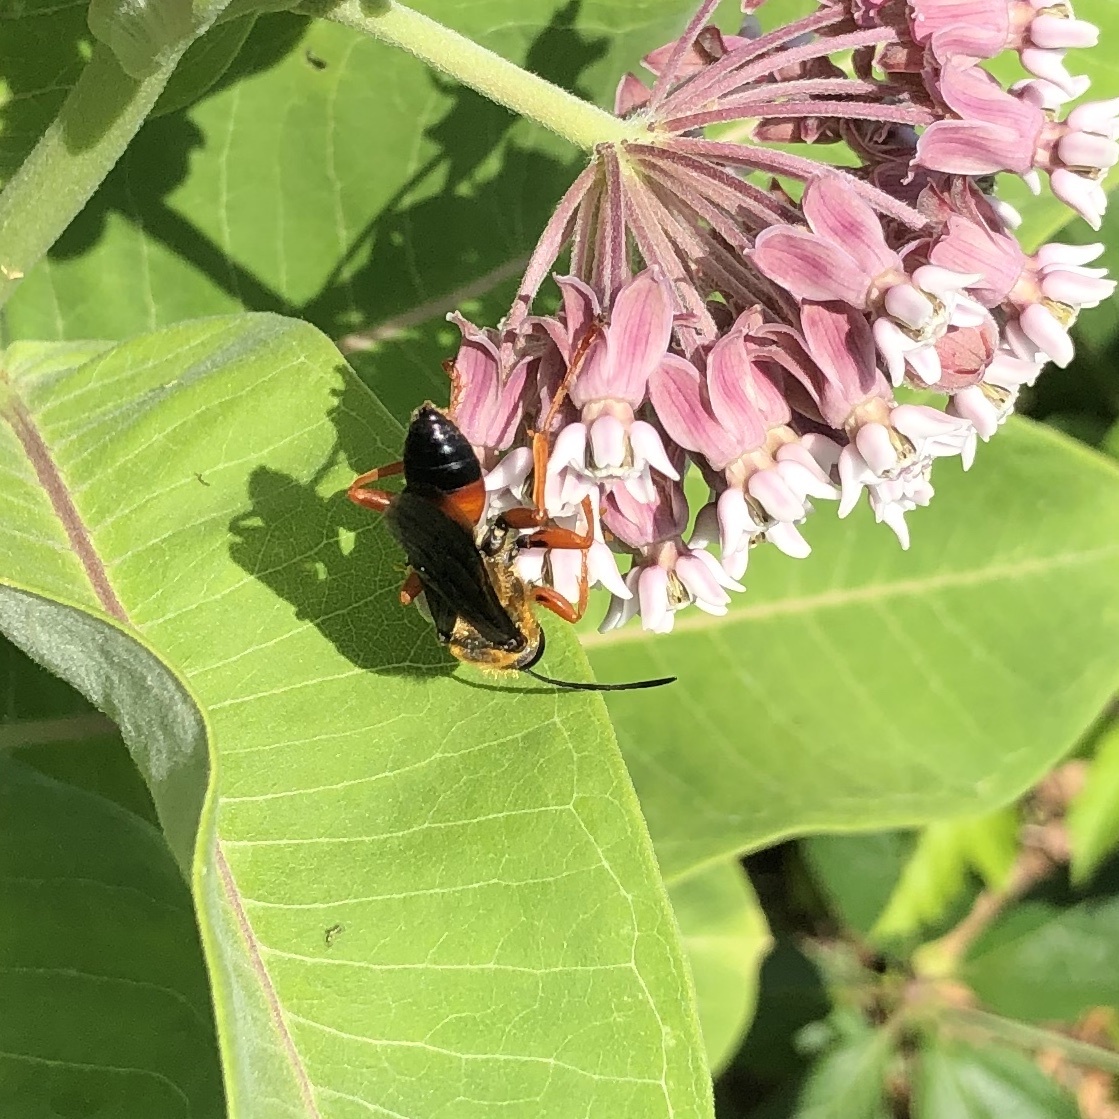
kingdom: Animalia
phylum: Arthropoda
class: Insecta
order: Hymenoptera
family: Sphecidae
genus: Sphex
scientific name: Sphex ichneumoneus
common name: Great golden digger wasp
